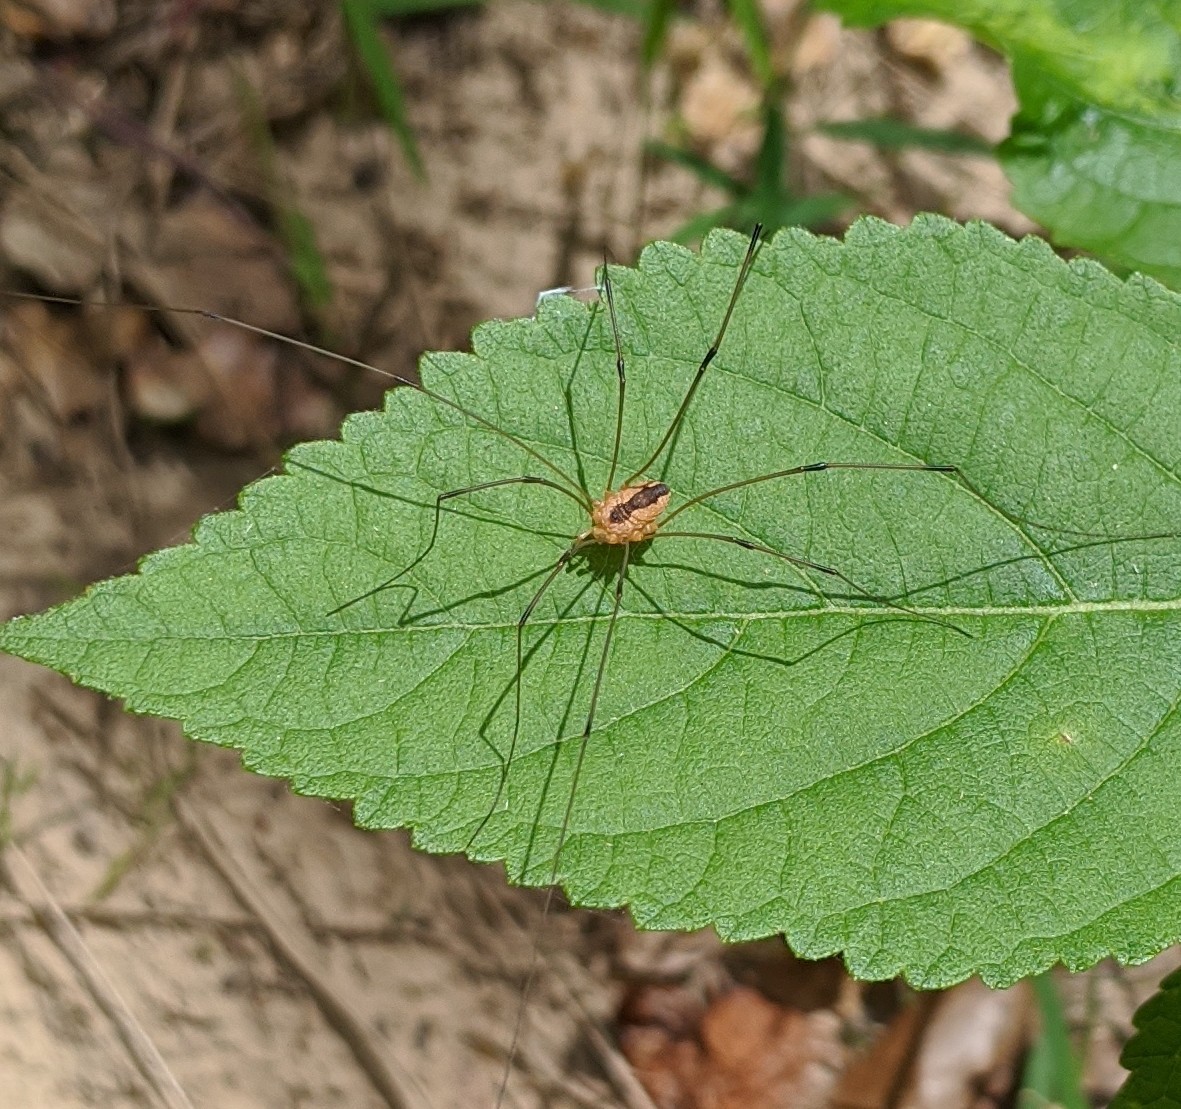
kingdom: Animalia
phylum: Arthropoda
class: Arachnida
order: Opiliones
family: Sclerosomatidae
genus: Leiobunum
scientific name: Leiobunum vittatum
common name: Eastern harvestman
